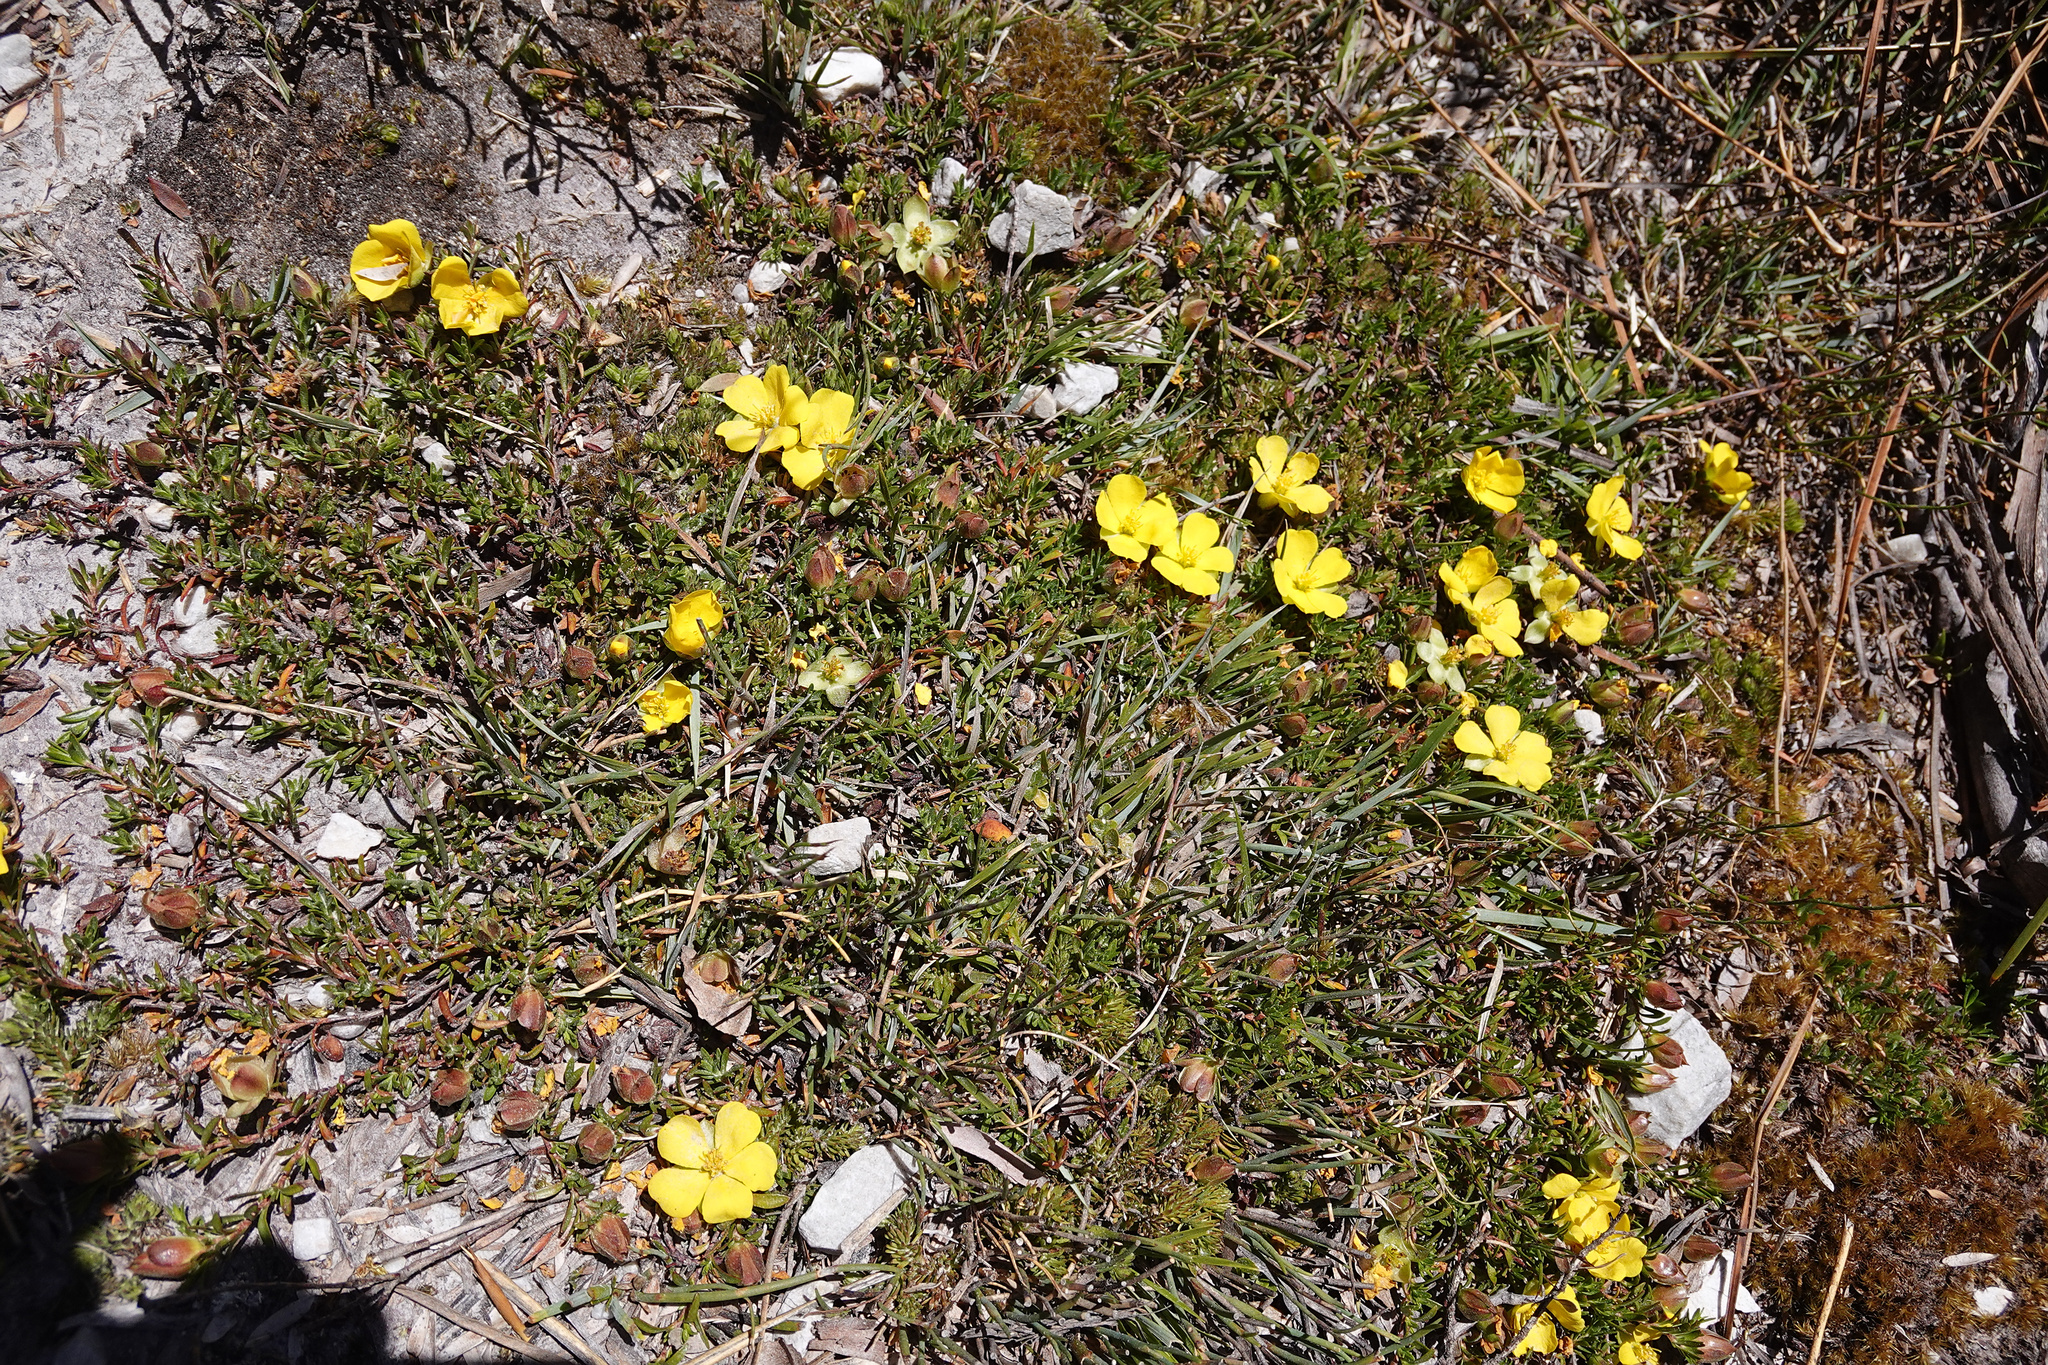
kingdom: Plantae
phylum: Tracheophyta
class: Magnoliopsida
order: Dilleniales
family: Dilleniaceae
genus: Hibbertia
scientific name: Hibbertia procumbens
